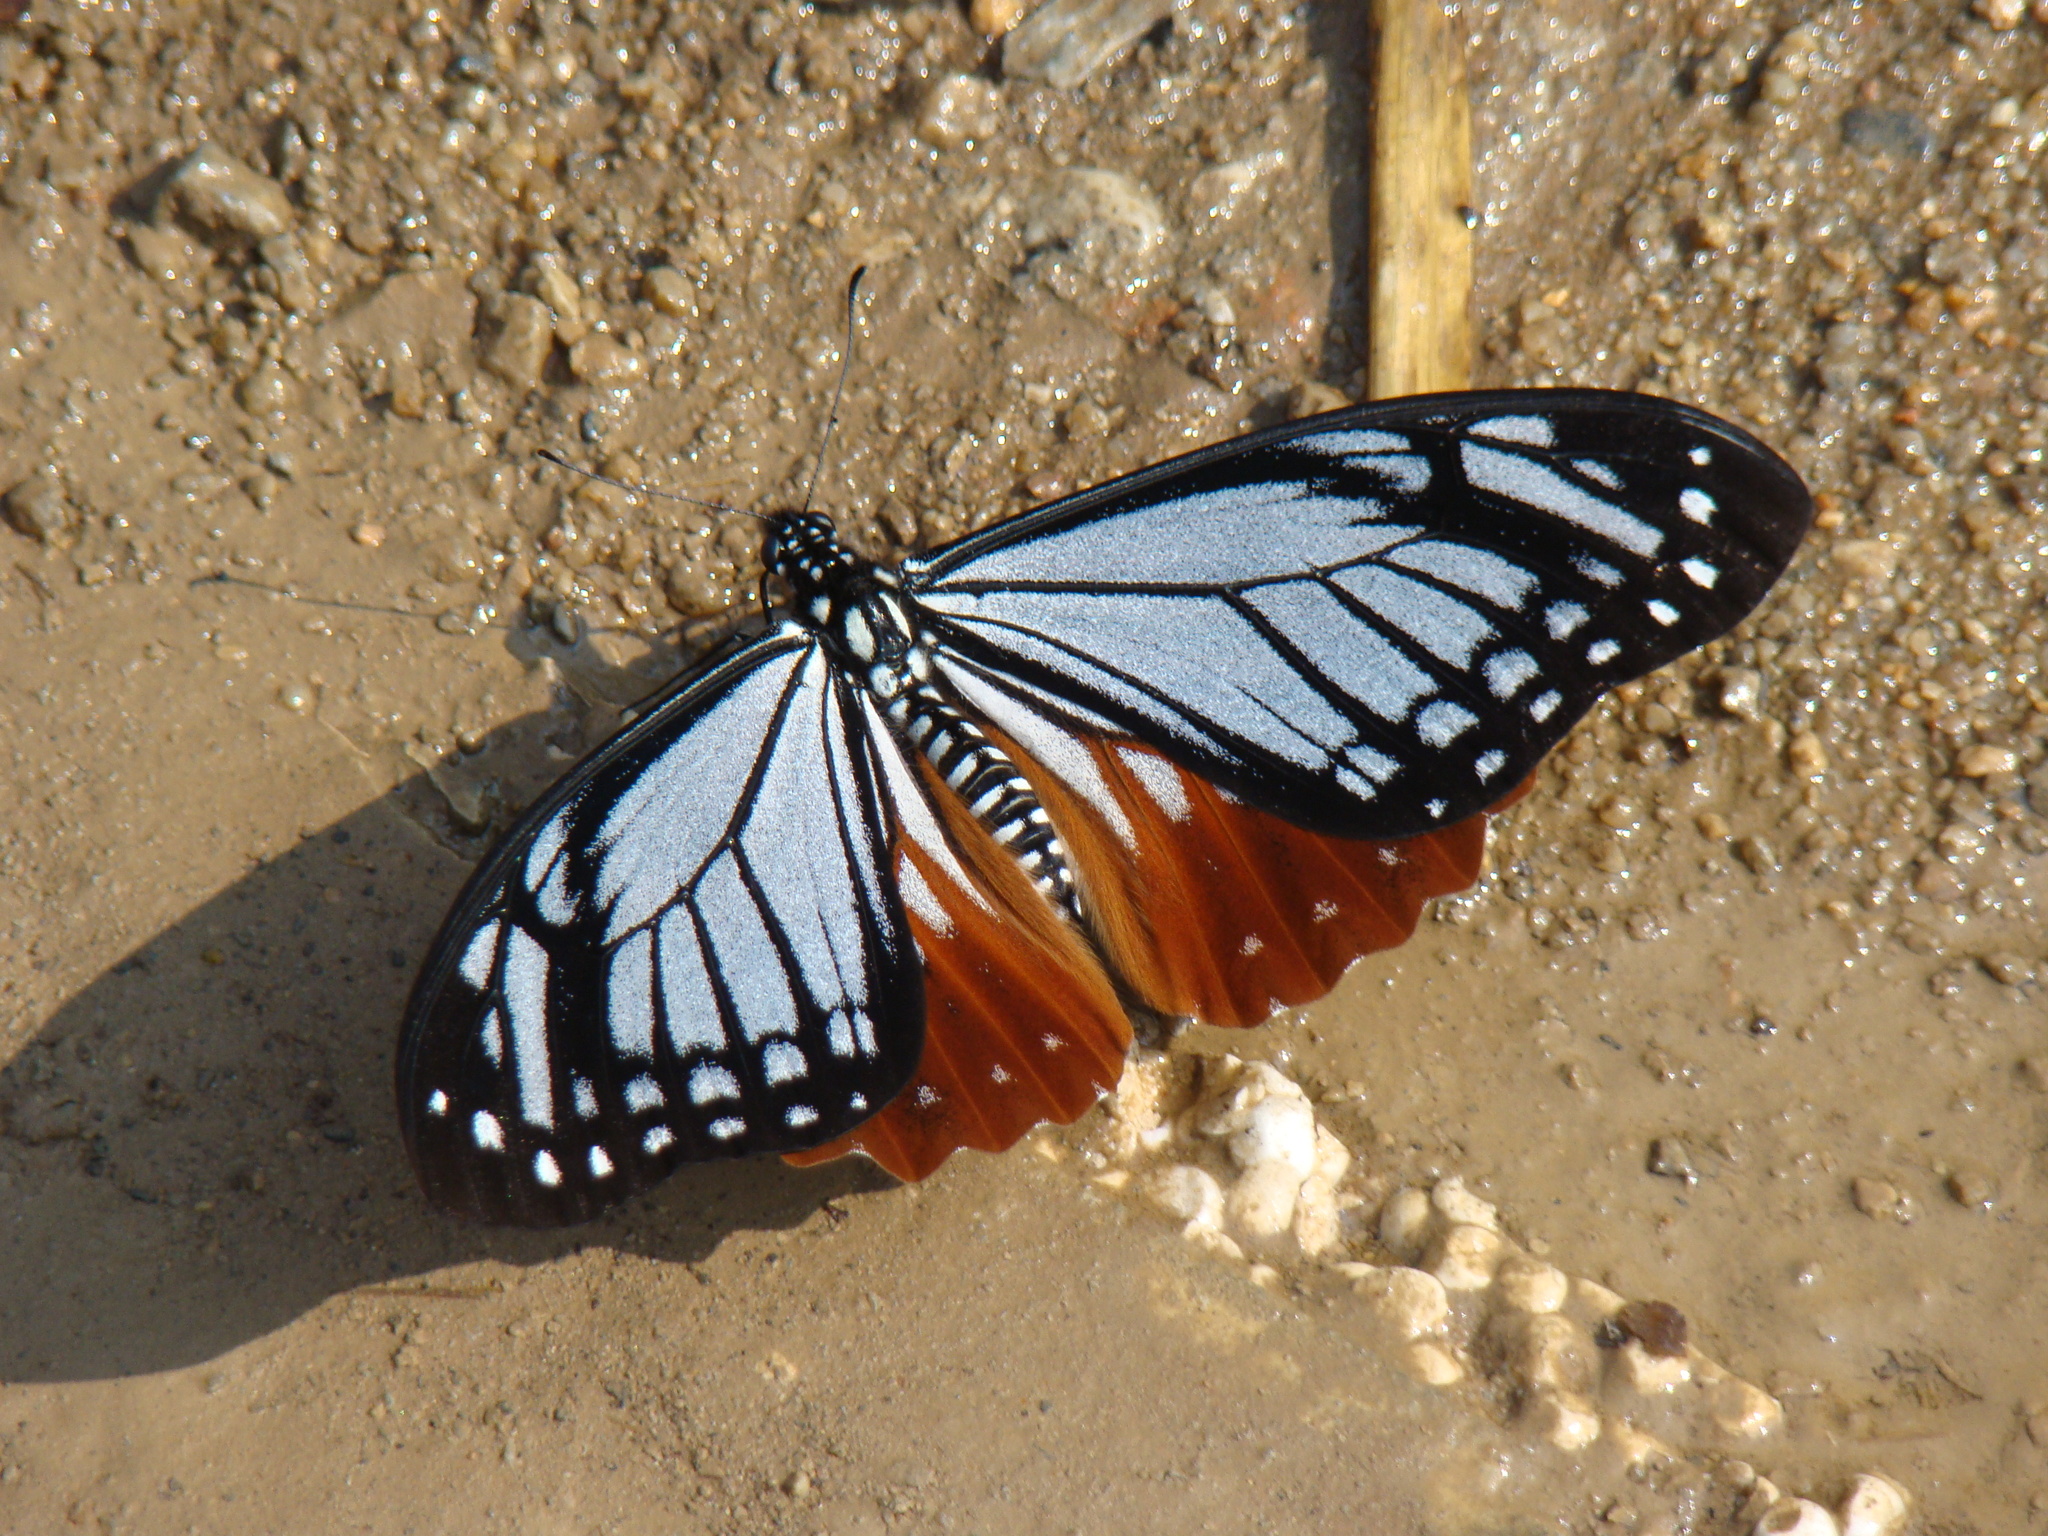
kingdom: Animalia
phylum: Arthropoda
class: Insecta
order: Lepidoptera
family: Lycaenidae
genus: Plebicula
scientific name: Plebicula escheri
